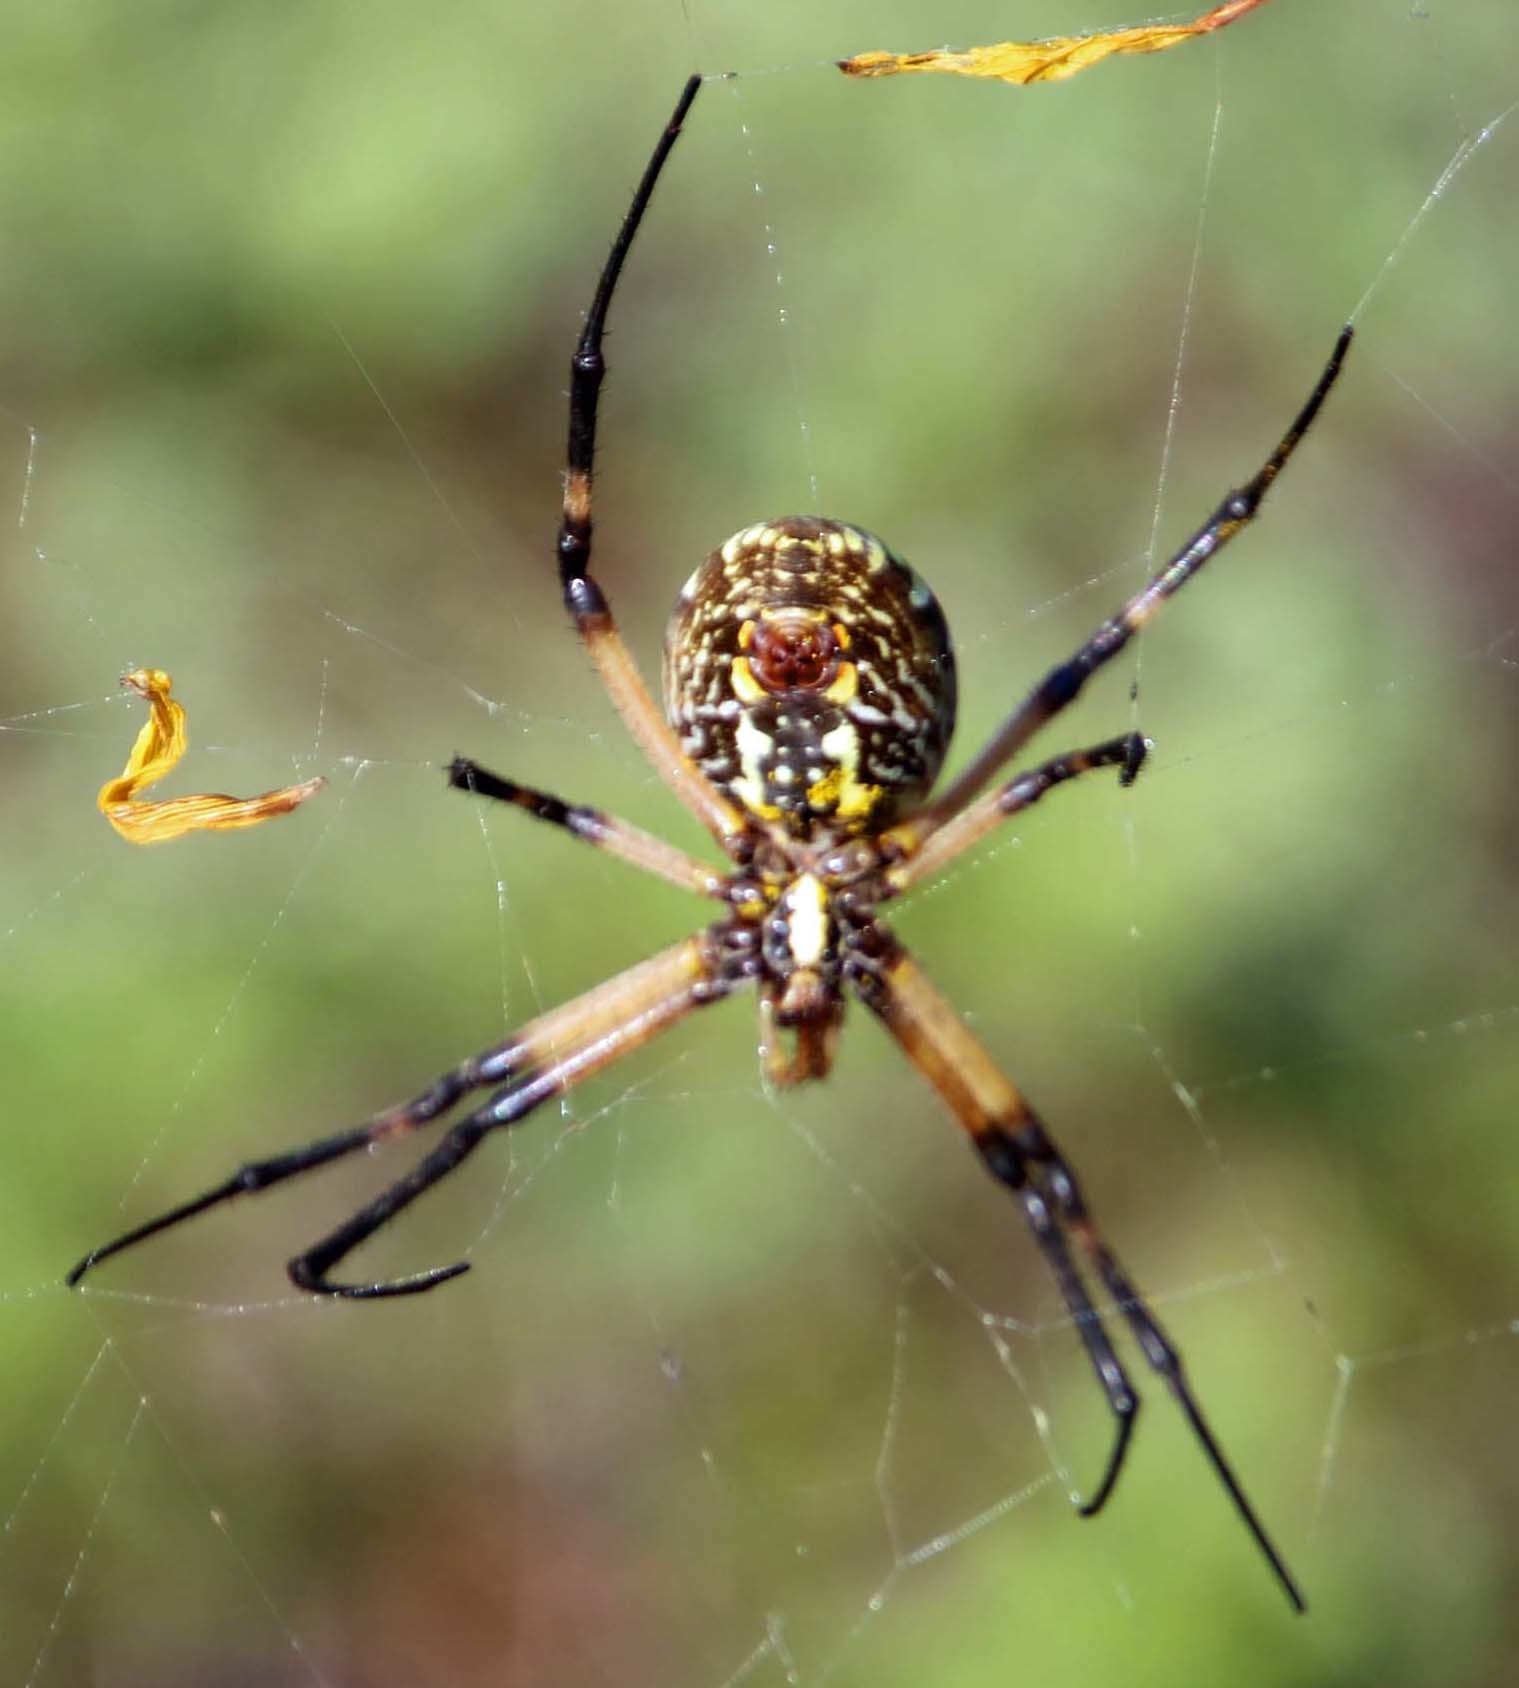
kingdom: Animalia
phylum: Arthropoda
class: Arachnida
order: Araneae
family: Araneidae
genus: Argiope
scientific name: Argiope aurantia
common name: Orb weavers
